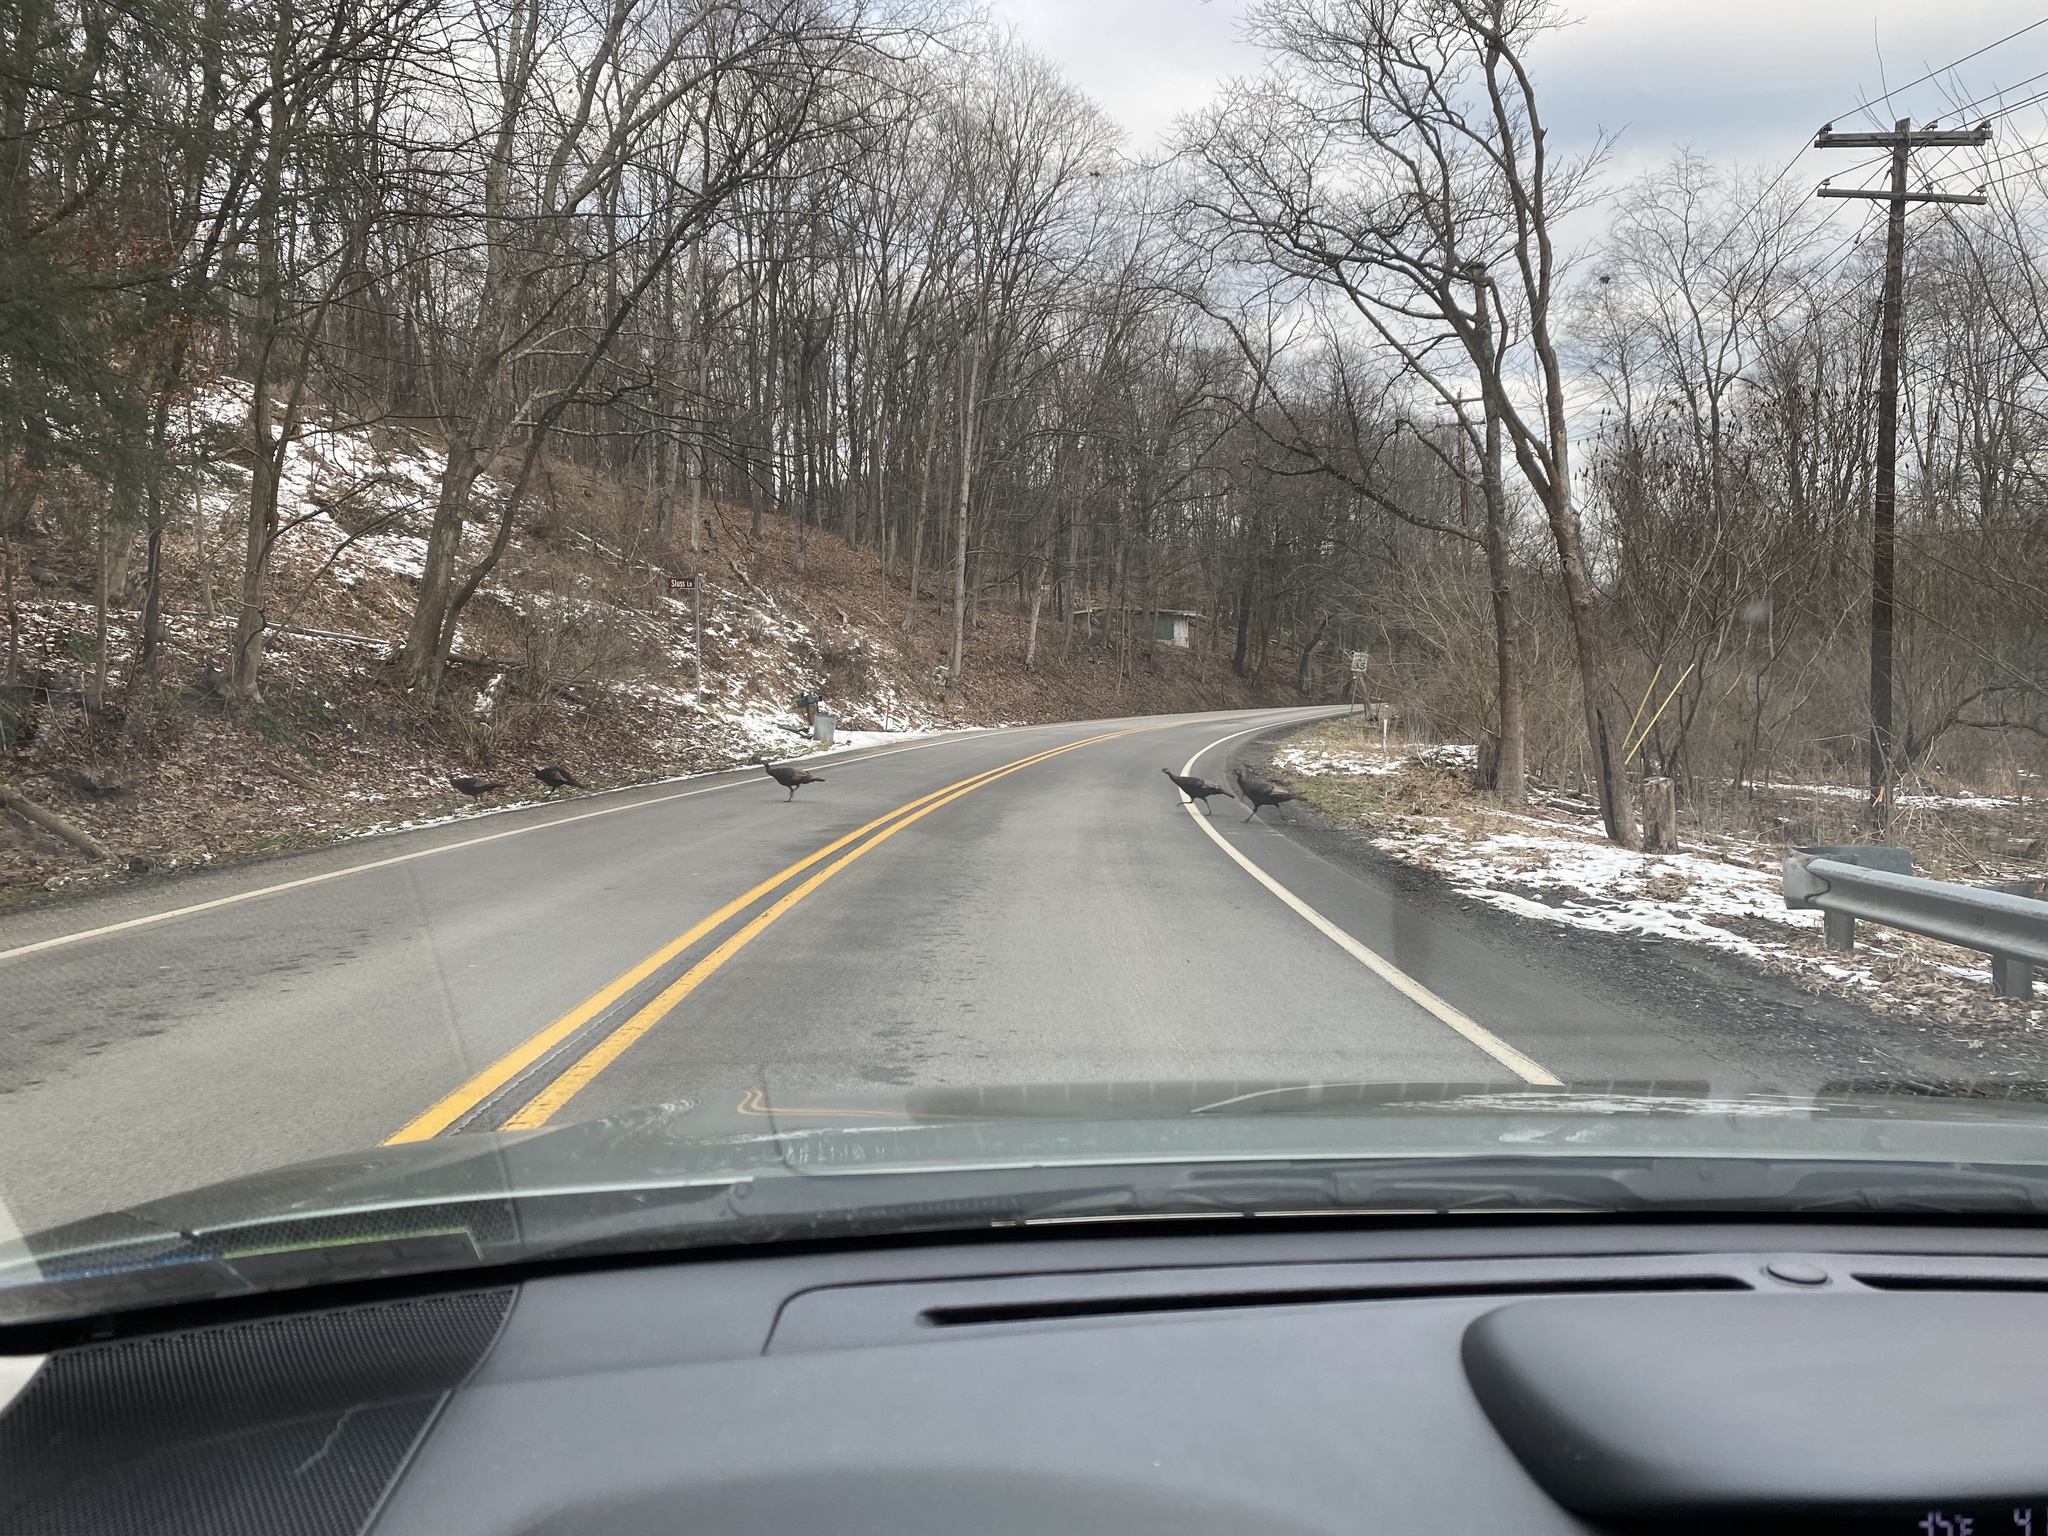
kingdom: Animalia
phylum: Chordata
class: Aves
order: Galliformes
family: Phasianidae
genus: Meleagris
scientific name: Meleagris gallopavo
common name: Wild turkey
